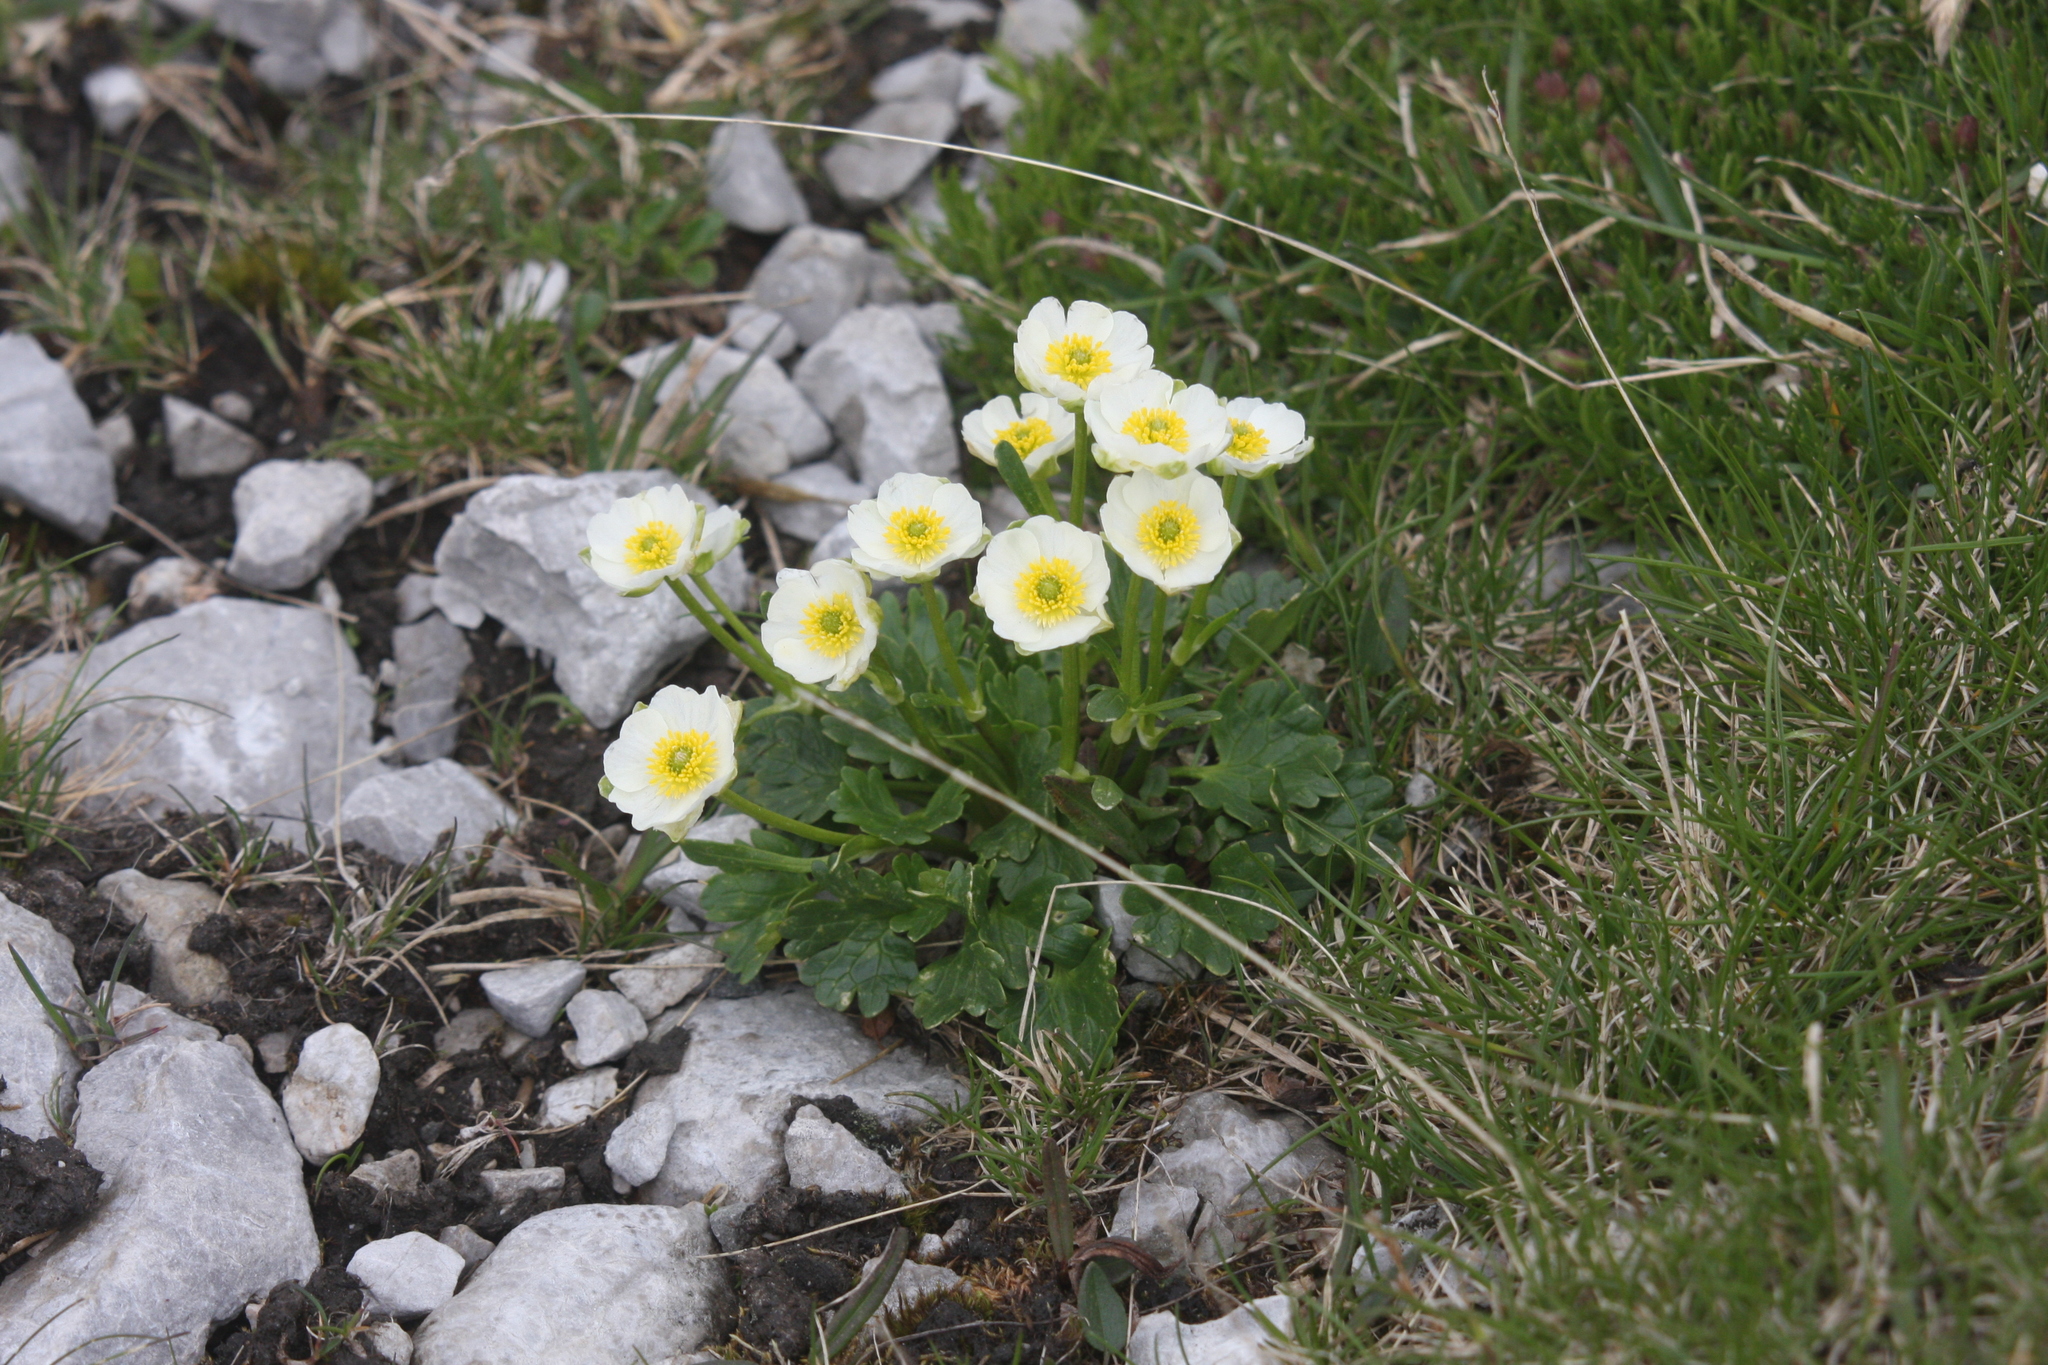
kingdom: Plantae
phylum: Tracheophyta
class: Magnoliopsida
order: Ranunculales
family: Ranunculaceae
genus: Ranunculus
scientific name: Ranunculus alpestris
